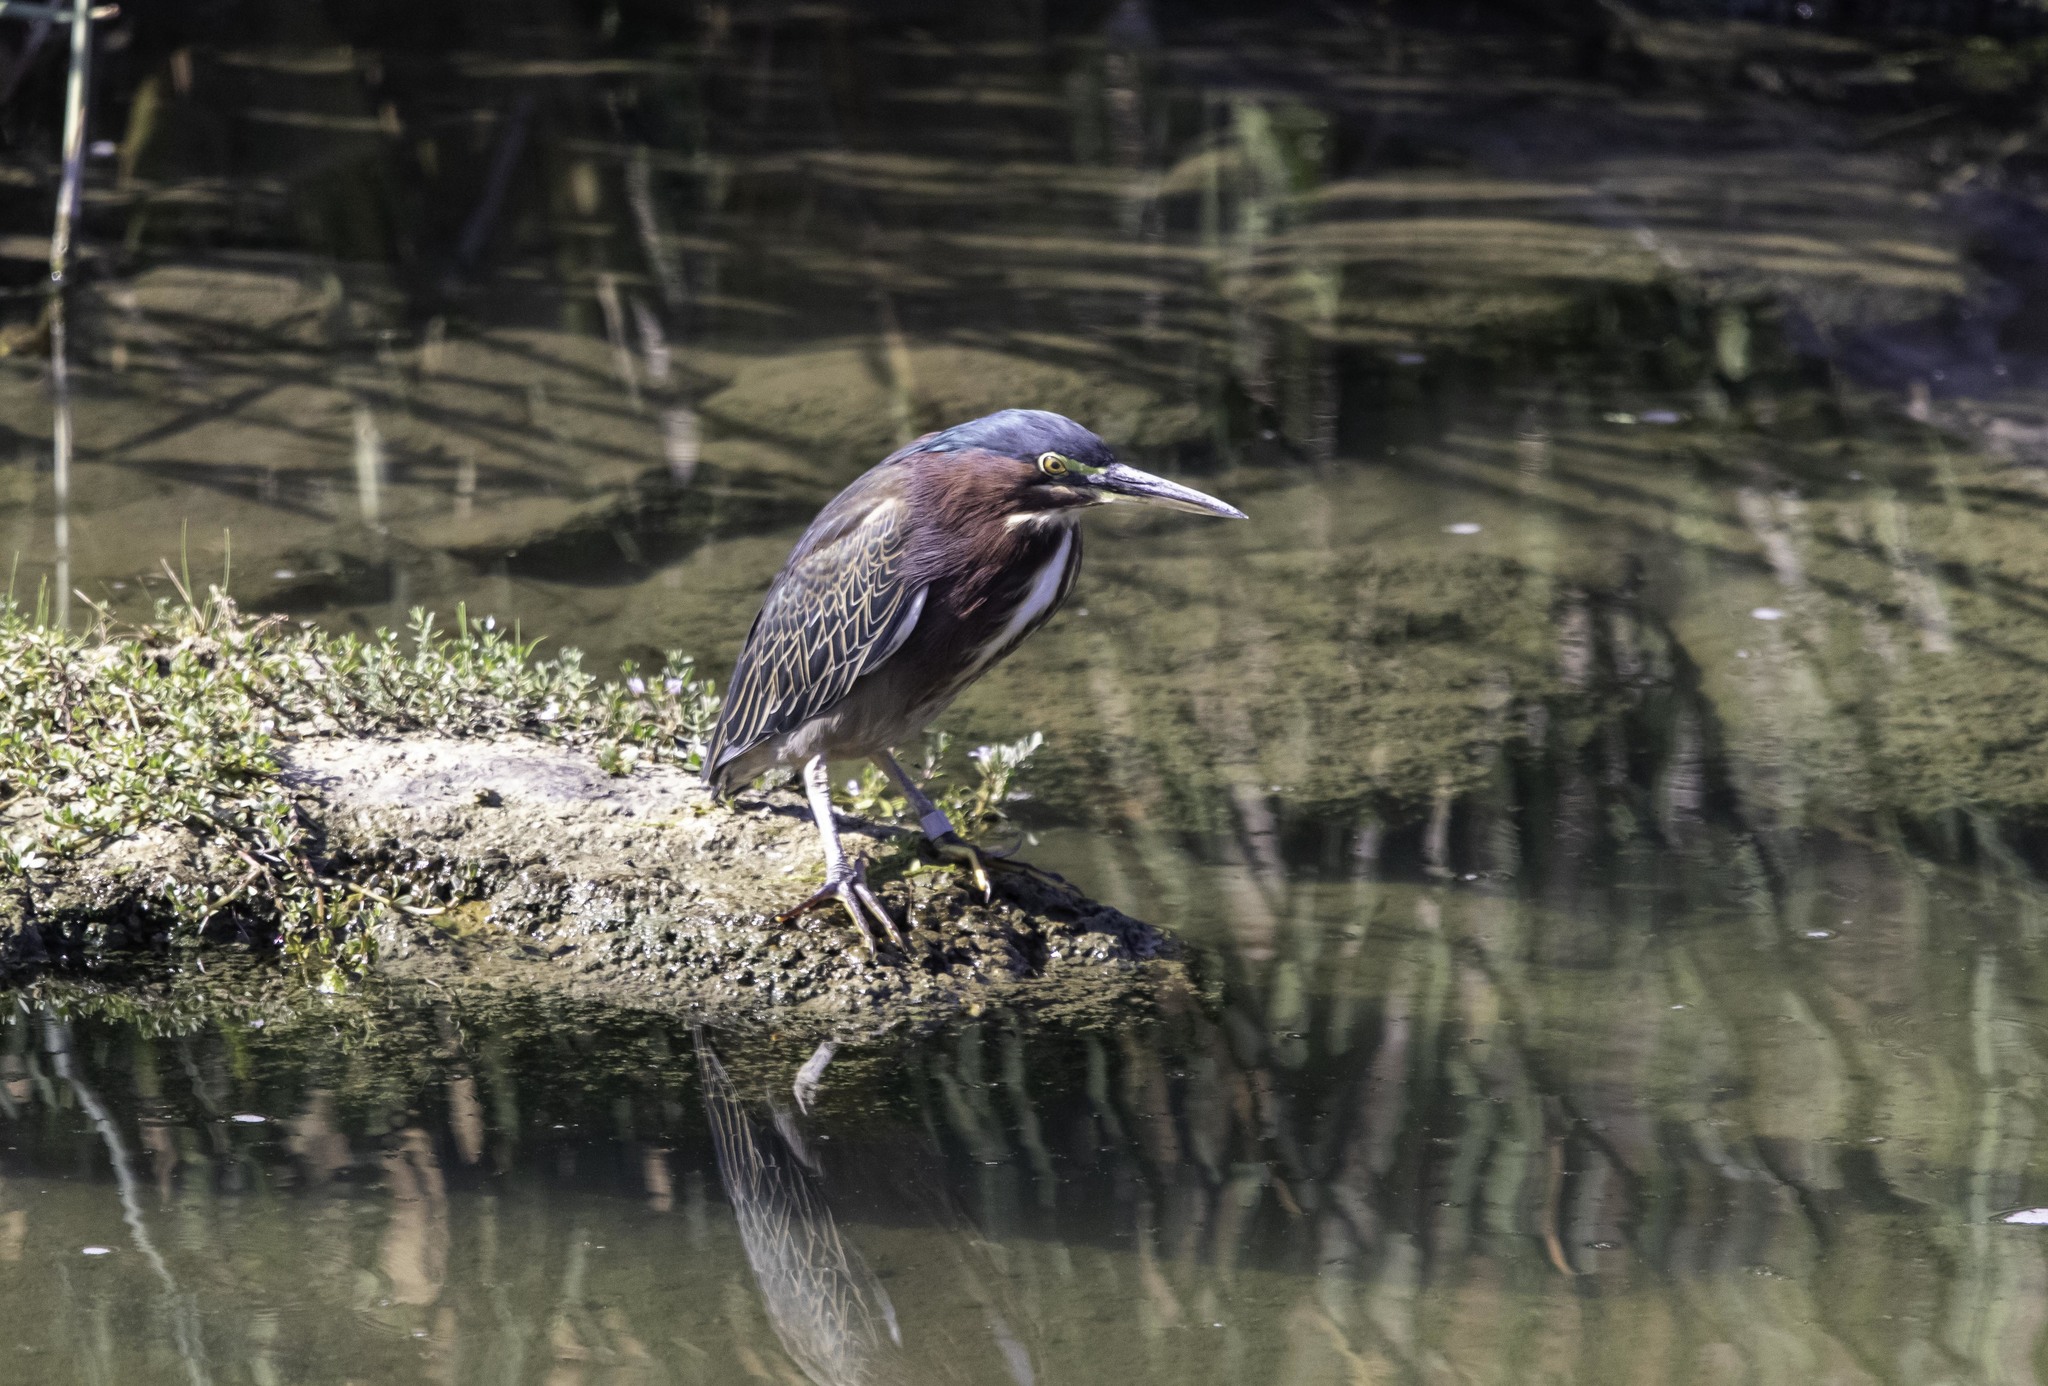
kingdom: Animalia
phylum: Chordata
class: Aves
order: Pelecaniformes
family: Ardeidae
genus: Butorides
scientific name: Butorides virescens
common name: Green heron
